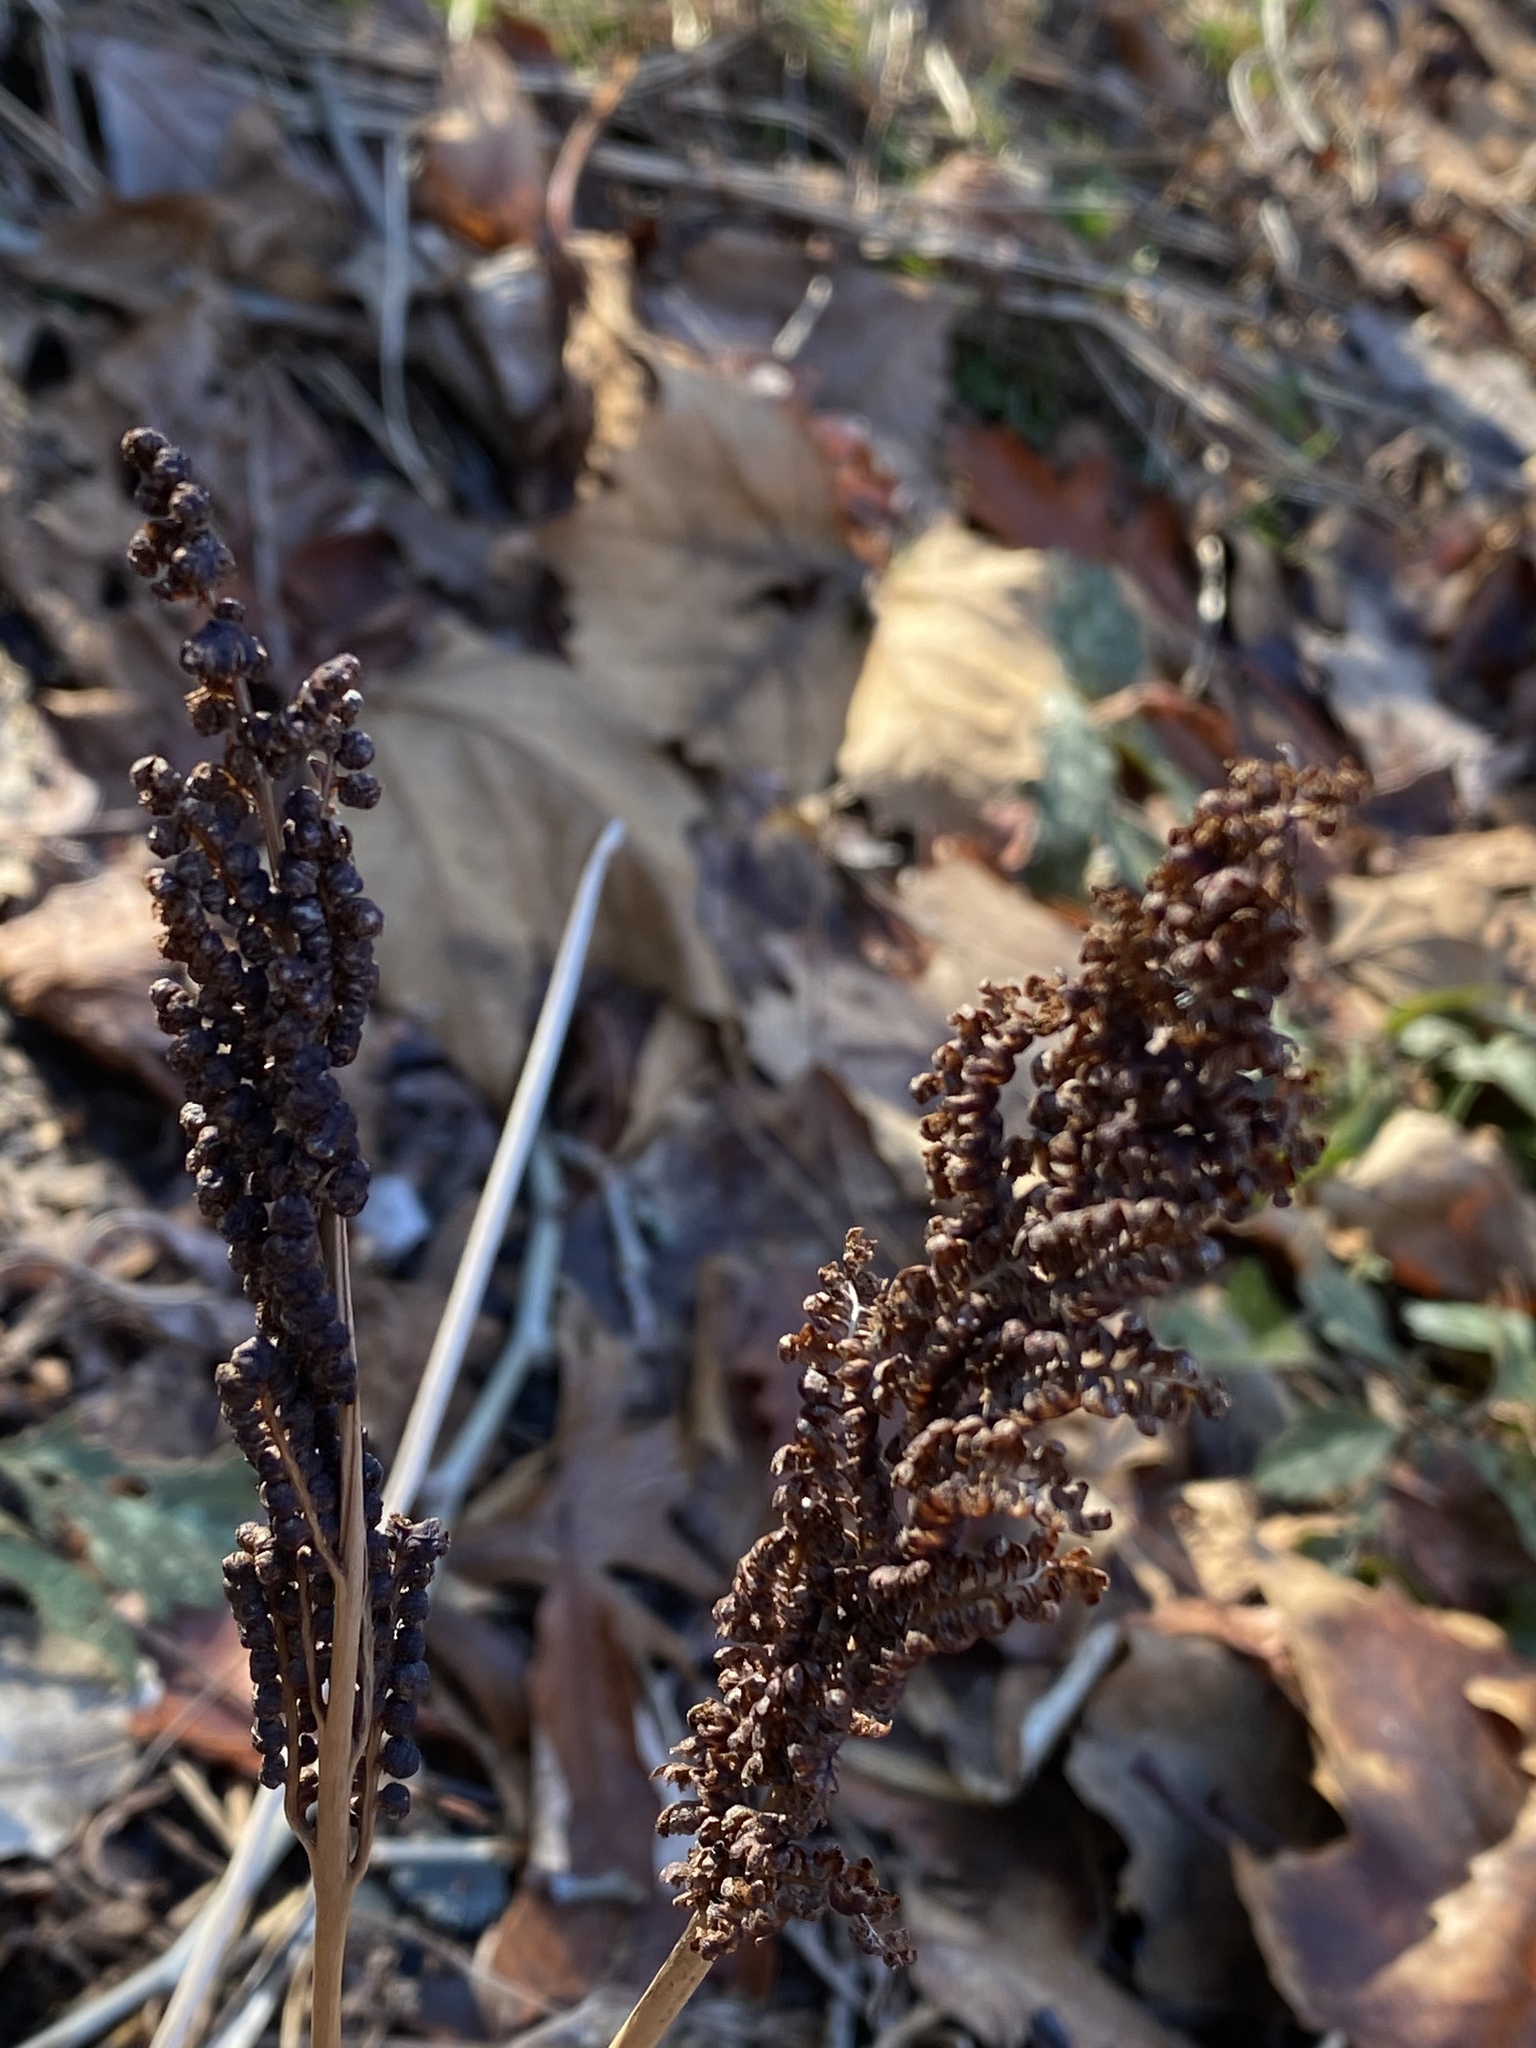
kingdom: Plantae
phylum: Tracheophyta
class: Polypodiopsida
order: Polypodiales
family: Onocleaceae
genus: Onoclea
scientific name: Onoclea sensibilis
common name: Sensitive fern
